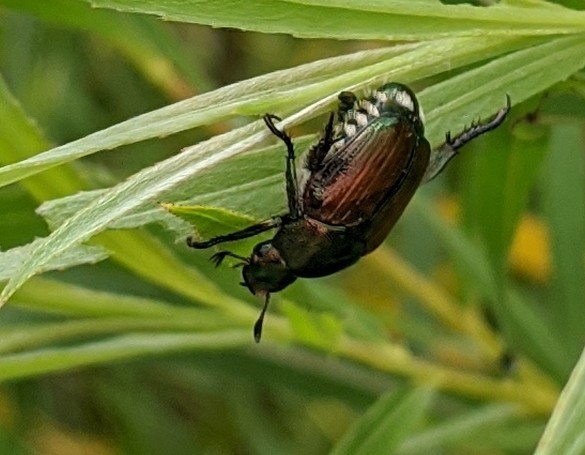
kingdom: Animalia
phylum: Arthropoda
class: Insecta
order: Coleoptera
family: Scarabaeidae
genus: Popillia
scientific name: Popillia japonica
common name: Japanese beetle
